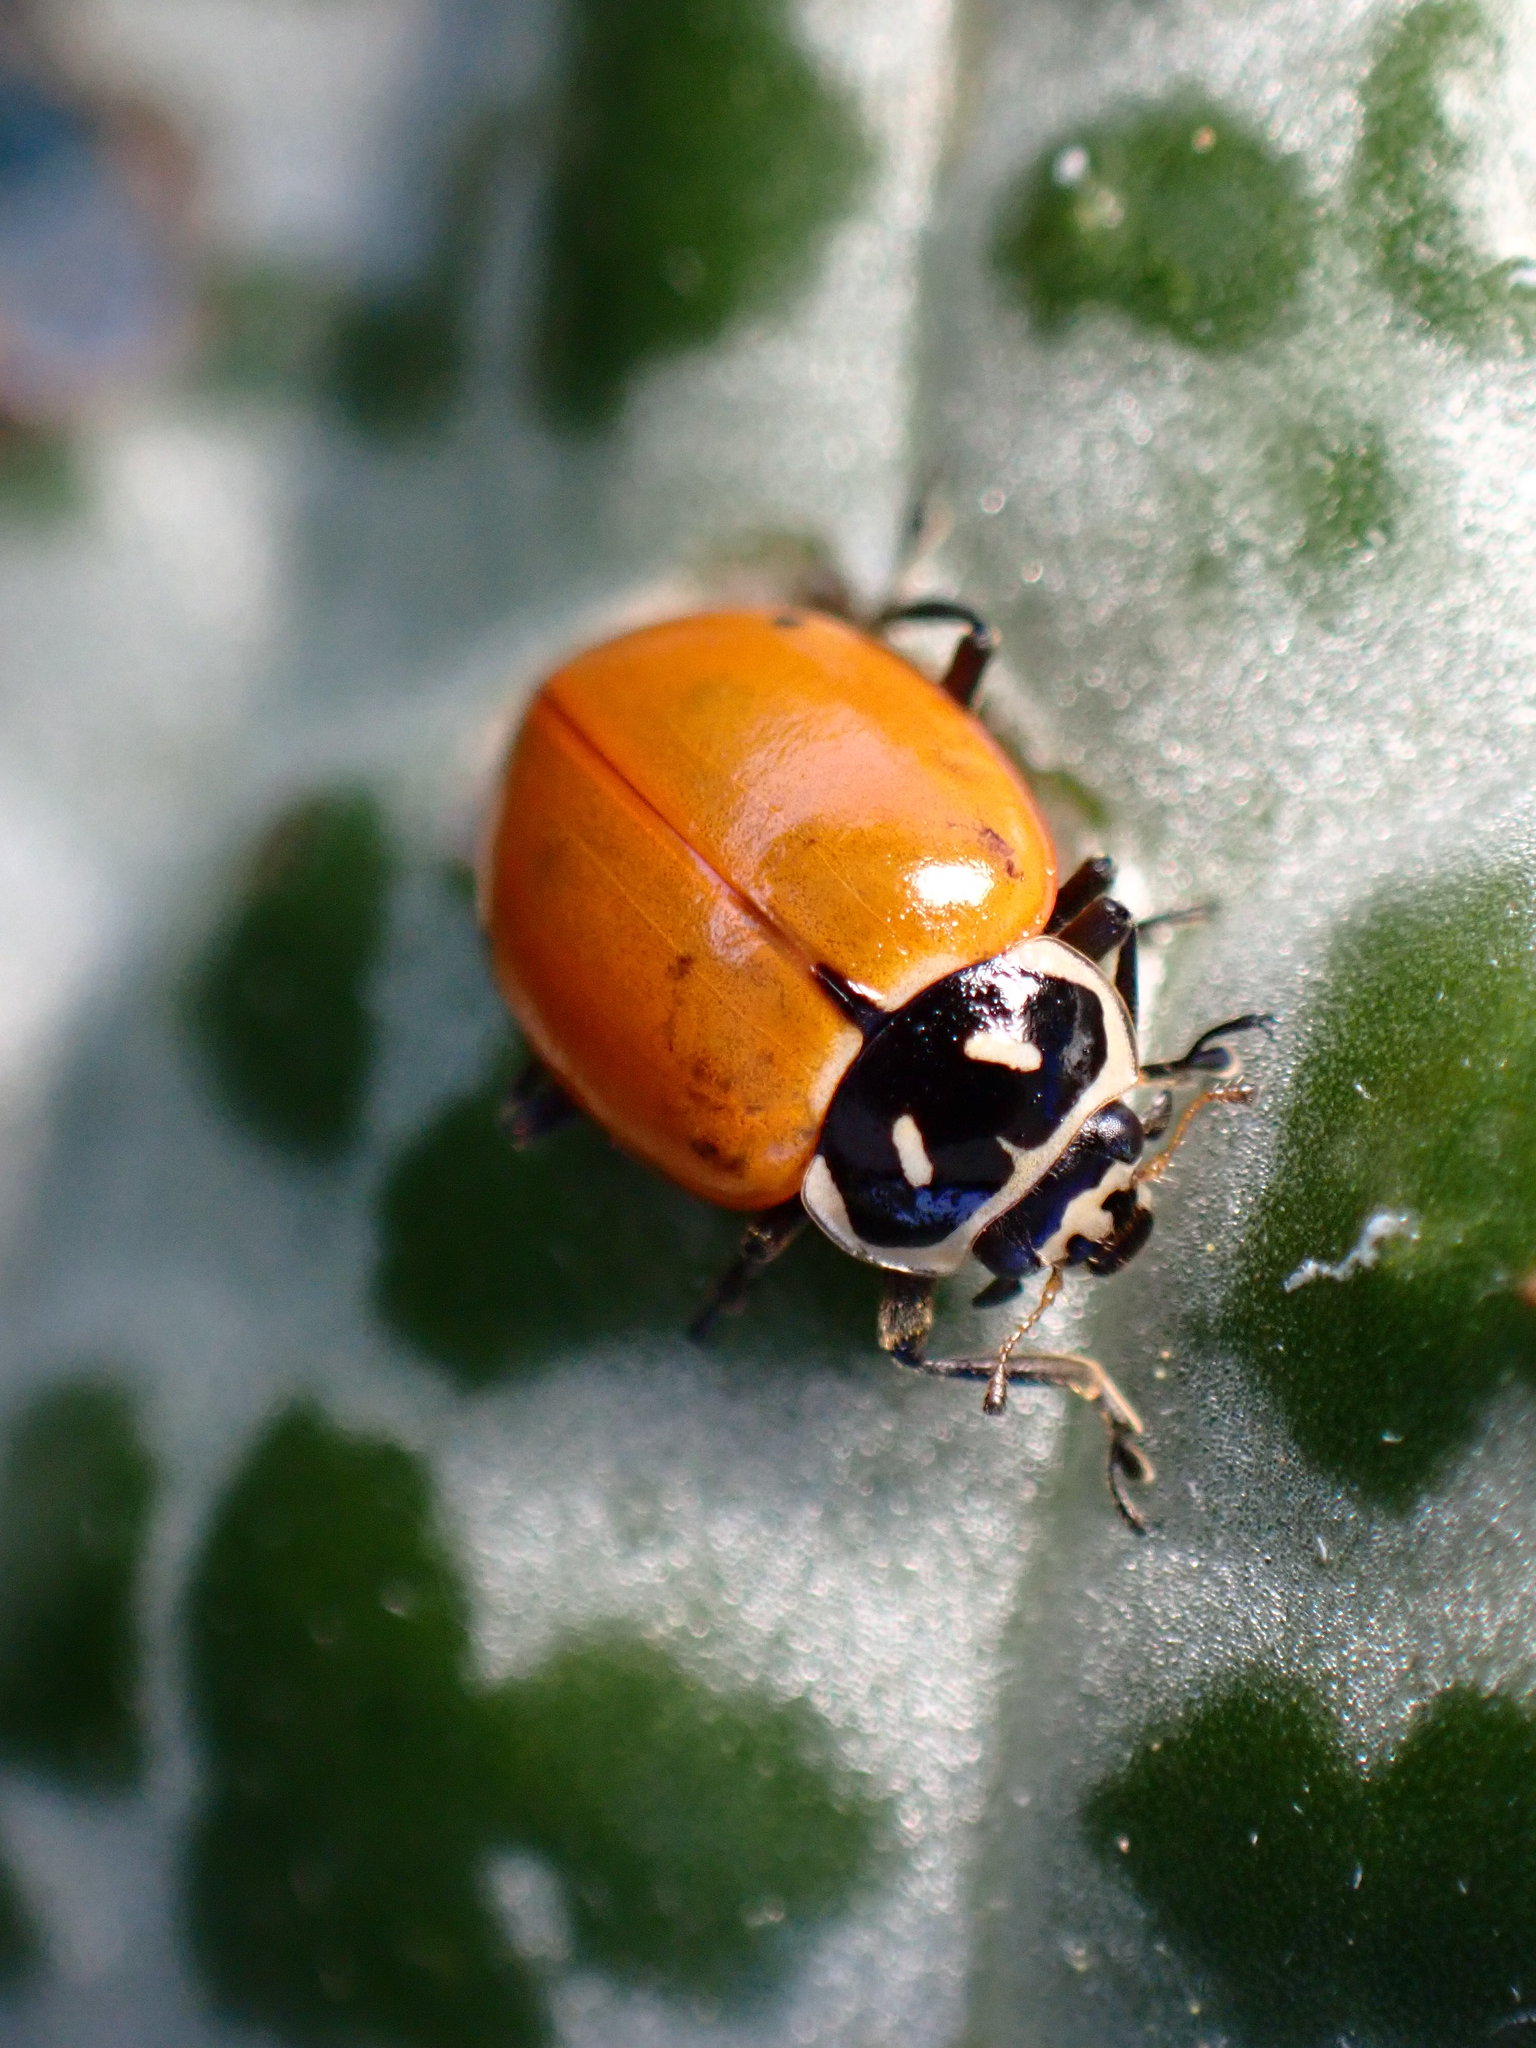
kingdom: Animalia
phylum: Arthropoda
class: Insecta
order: Coleoptera
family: Coccinellidae
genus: Hippodamia
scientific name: Hippodamia convergens
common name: Convergent lady beetle
